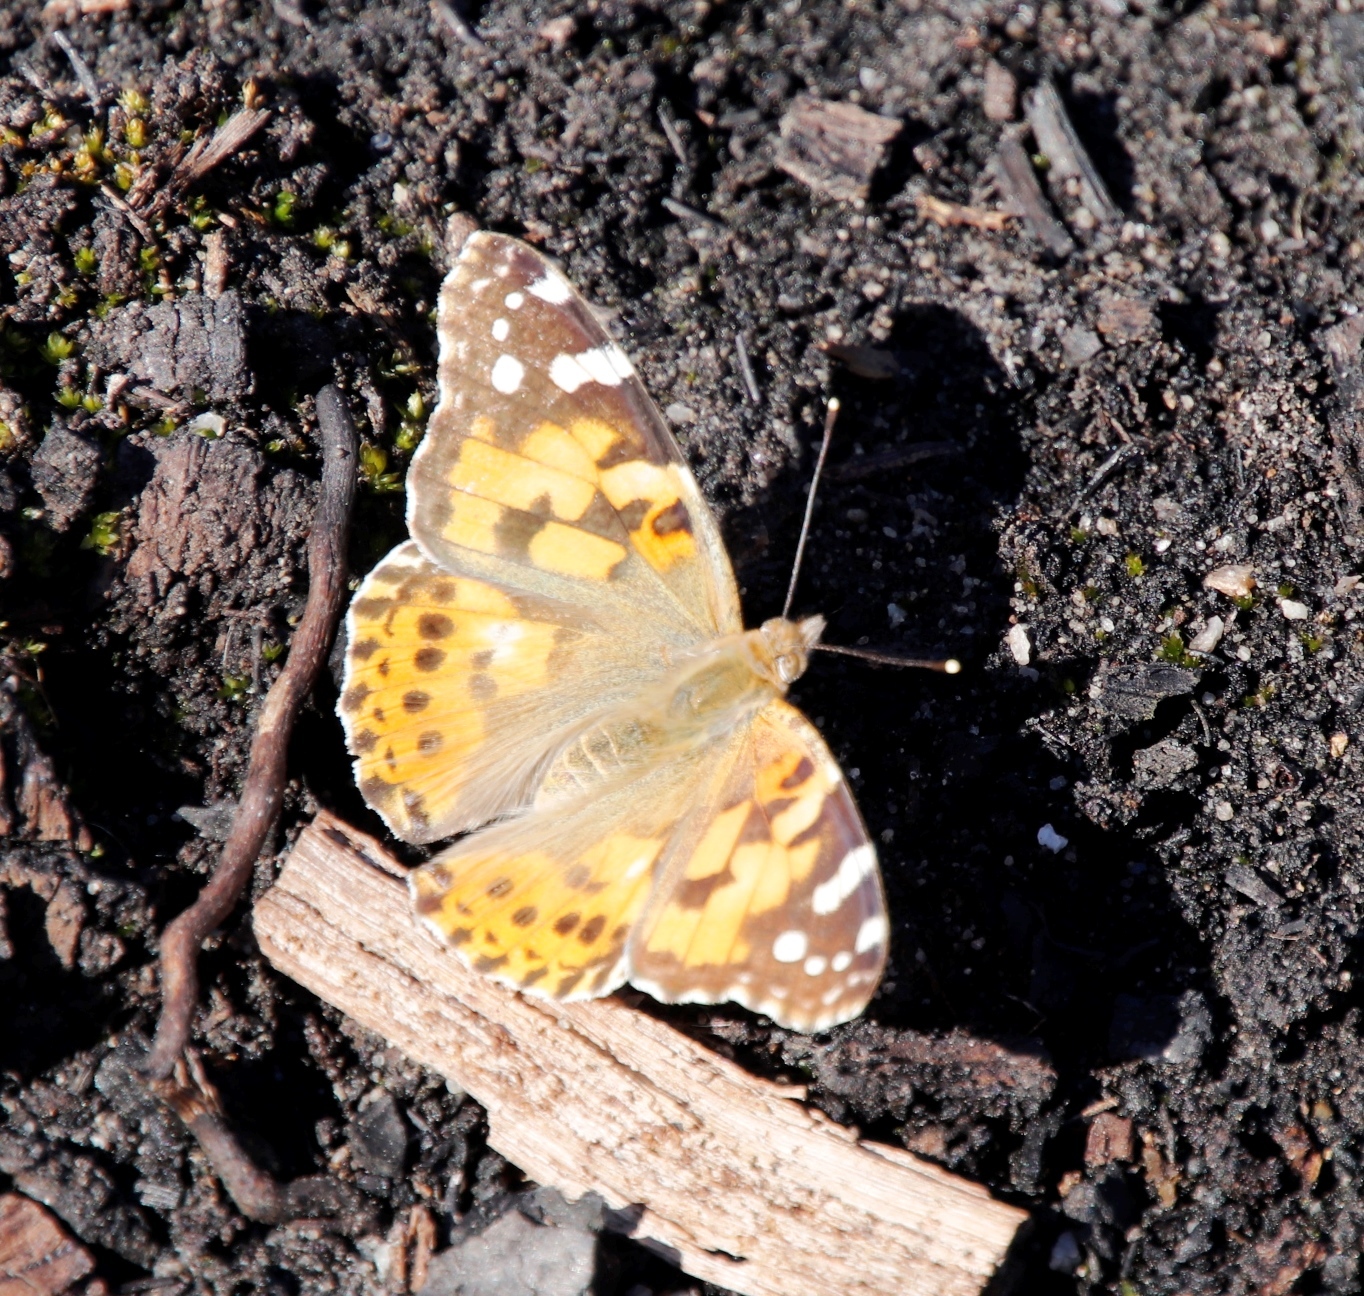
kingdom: Animalia
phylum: Arthropoda
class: Insecta
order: Lepidoptera
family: Nymphalidae
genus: Vanessa
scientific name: Vanessa cardui
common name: Painted lady
